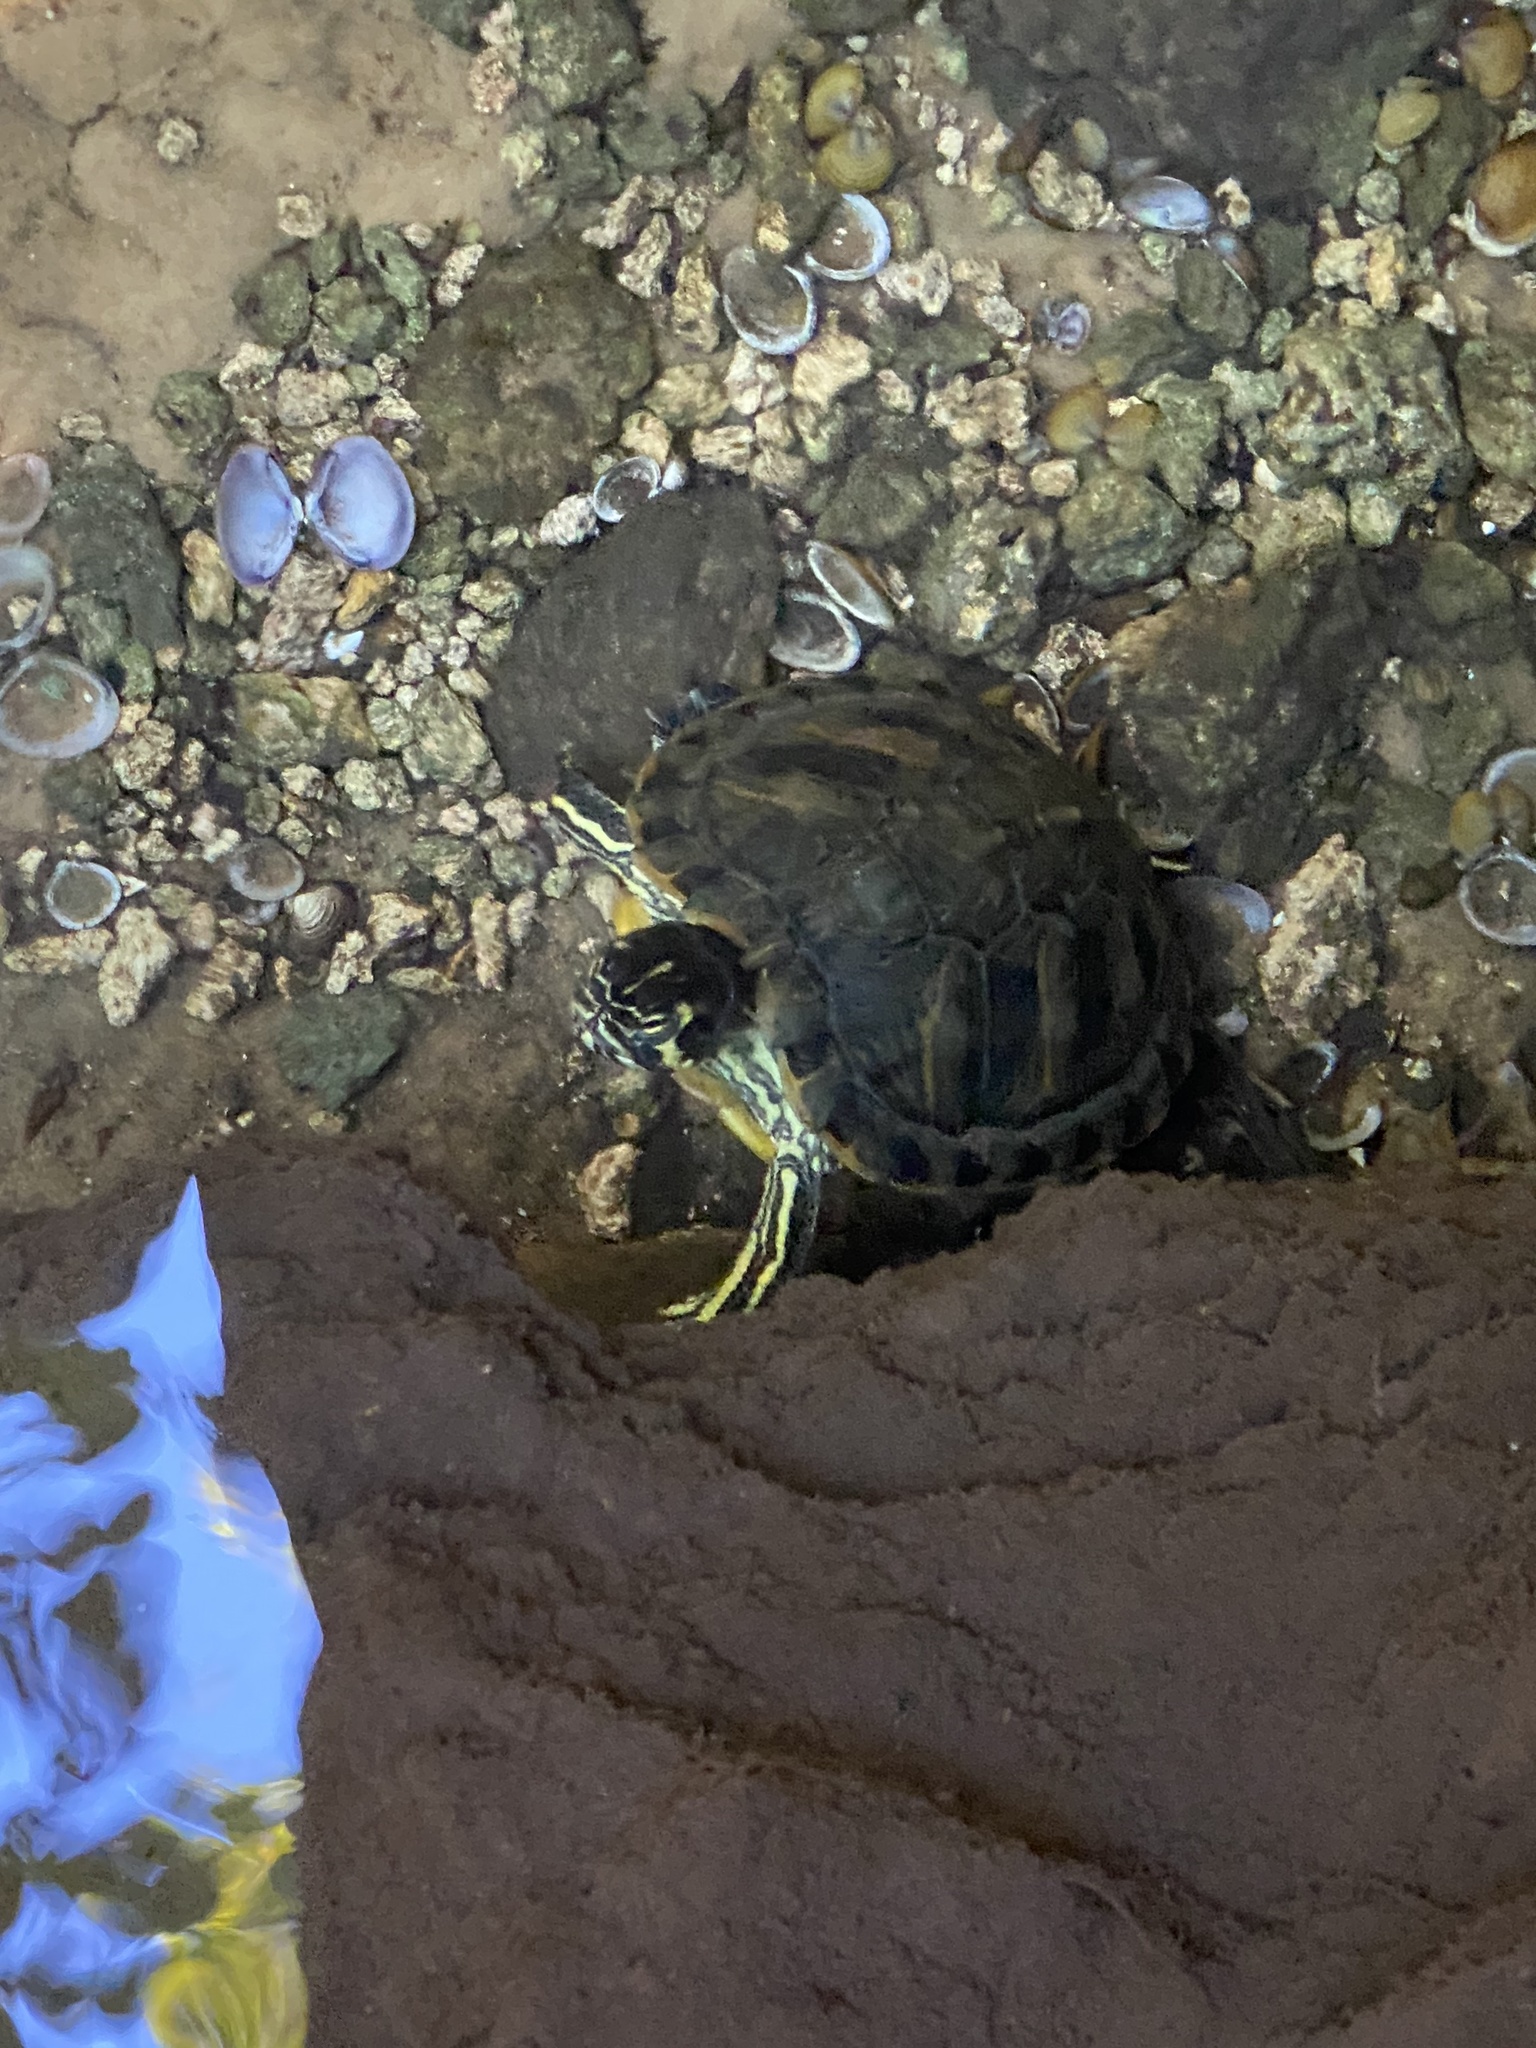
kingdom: Animalia
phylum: Chordata
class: Testudines
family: Emydidae
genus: Trachemys
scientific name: Trachemys scripta
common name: Slider
